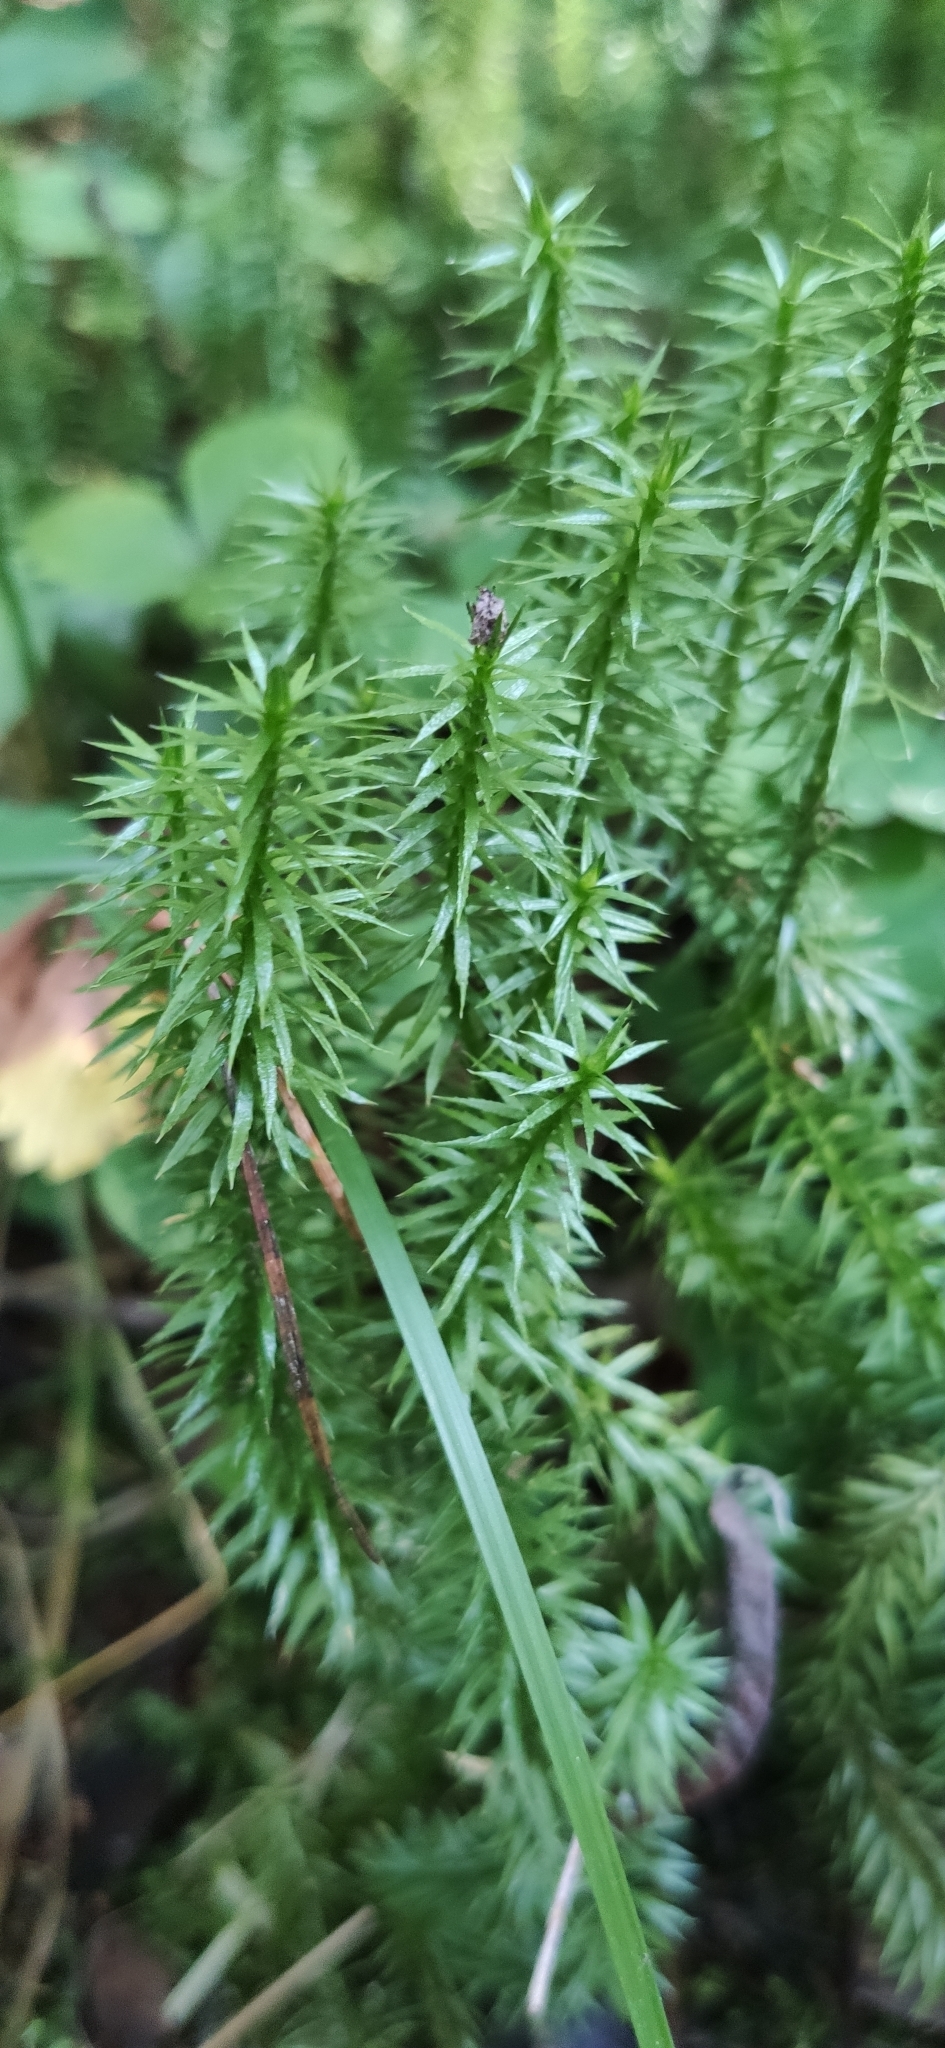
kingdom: Plantae
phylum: Tracheophyta
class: Lycopodiopsida
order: Lycopodiales
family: Lycopodiaceae
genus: Spinulum
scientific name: Spinulum annotinum
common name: Interrupted club-moss
